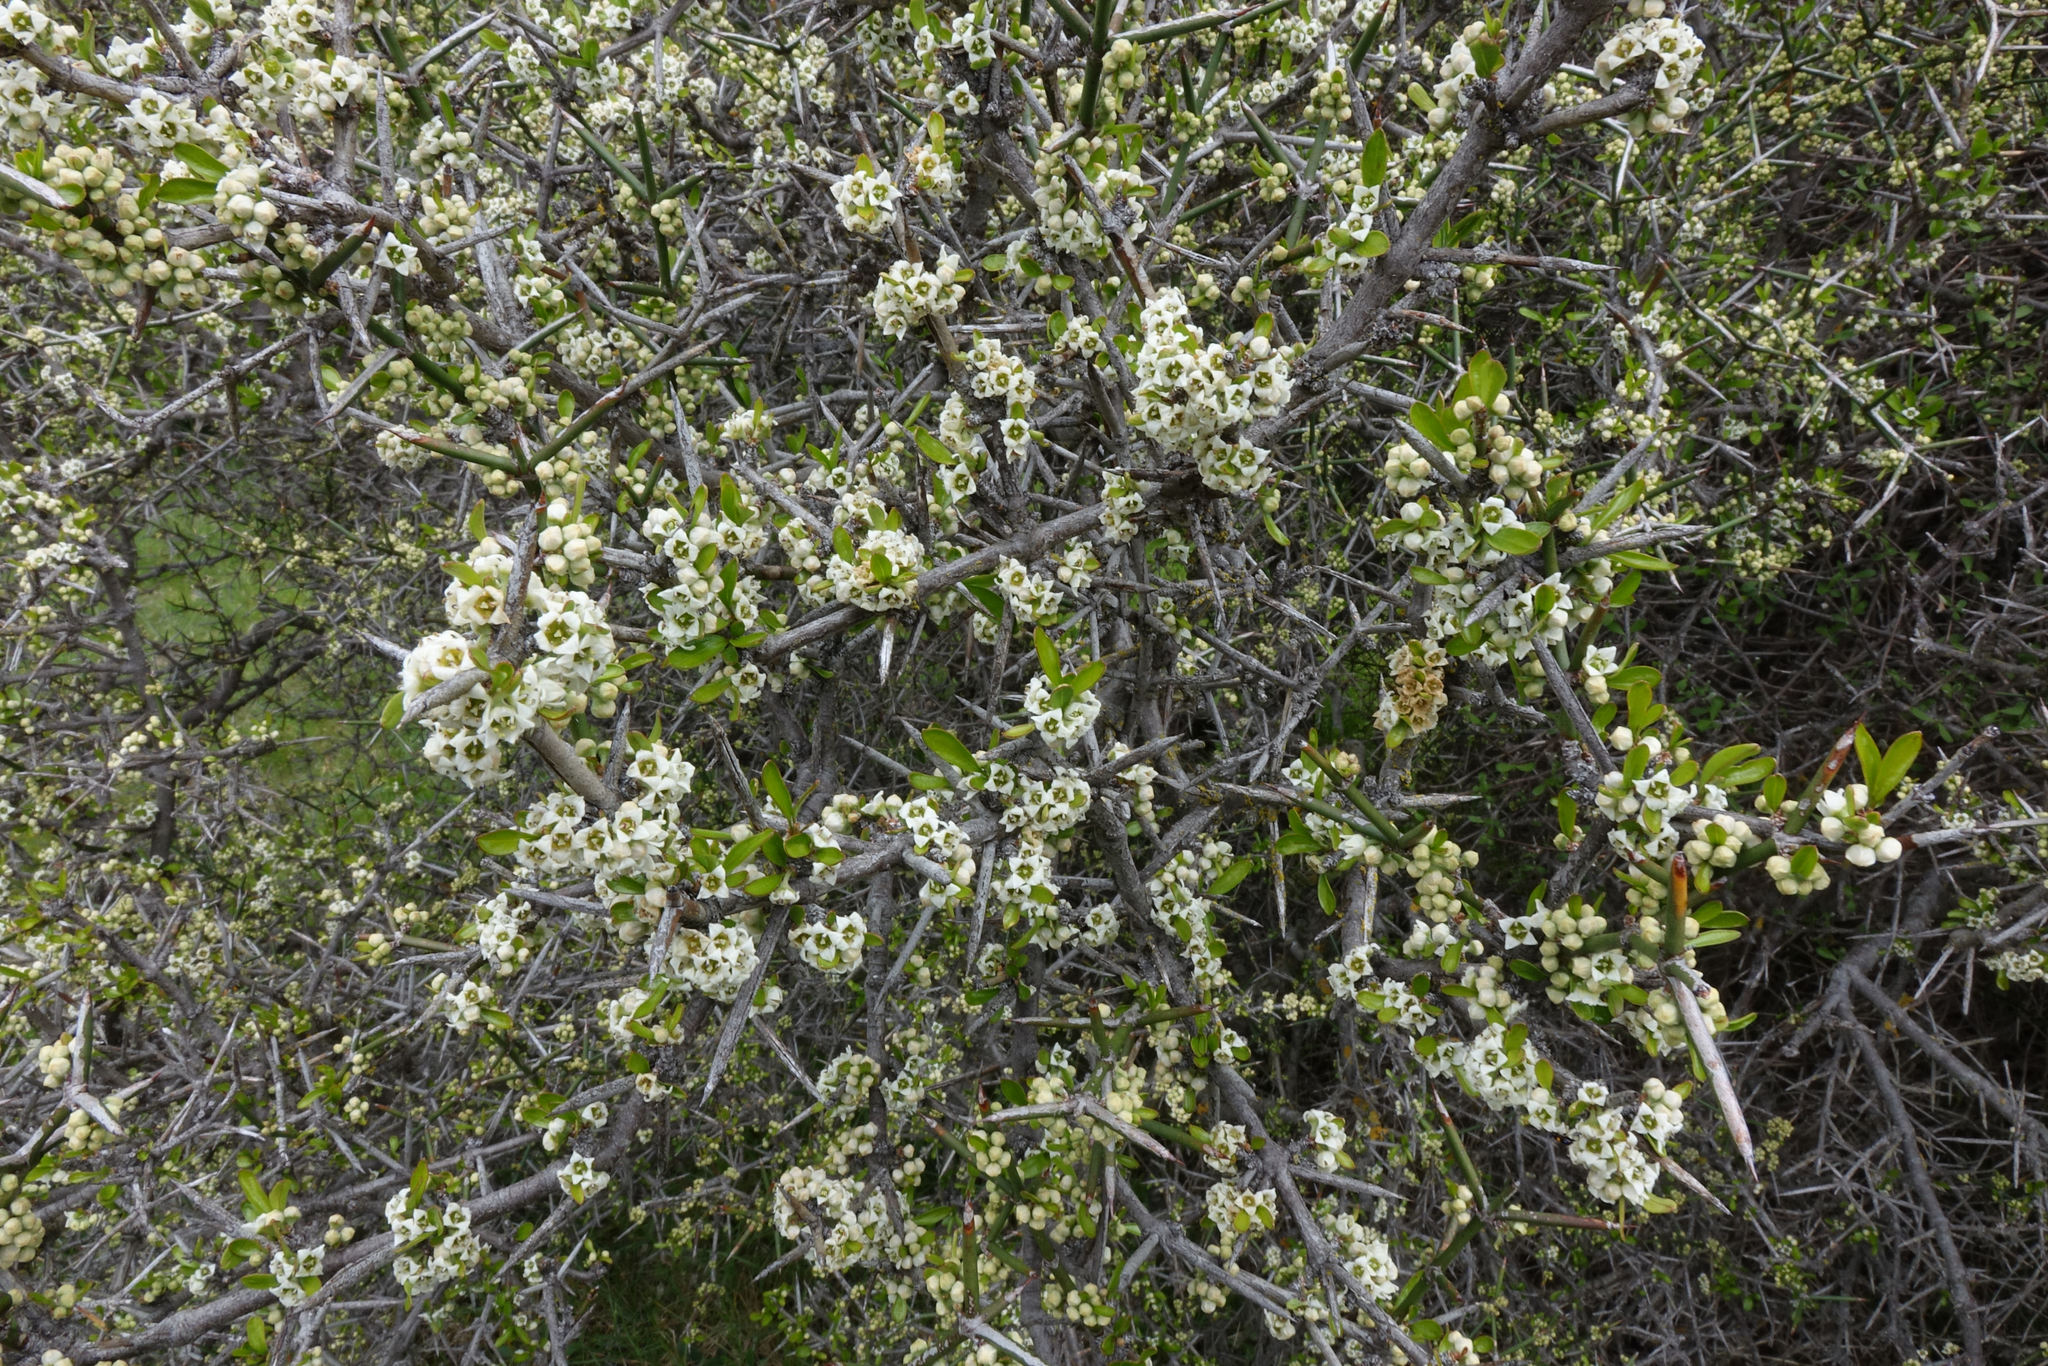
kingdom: Plantae
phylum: Tracheophyta
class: Magnoliopsida
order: Rosales
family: Rhamnaceae
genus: Discaria
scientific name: Discaria toumatou
